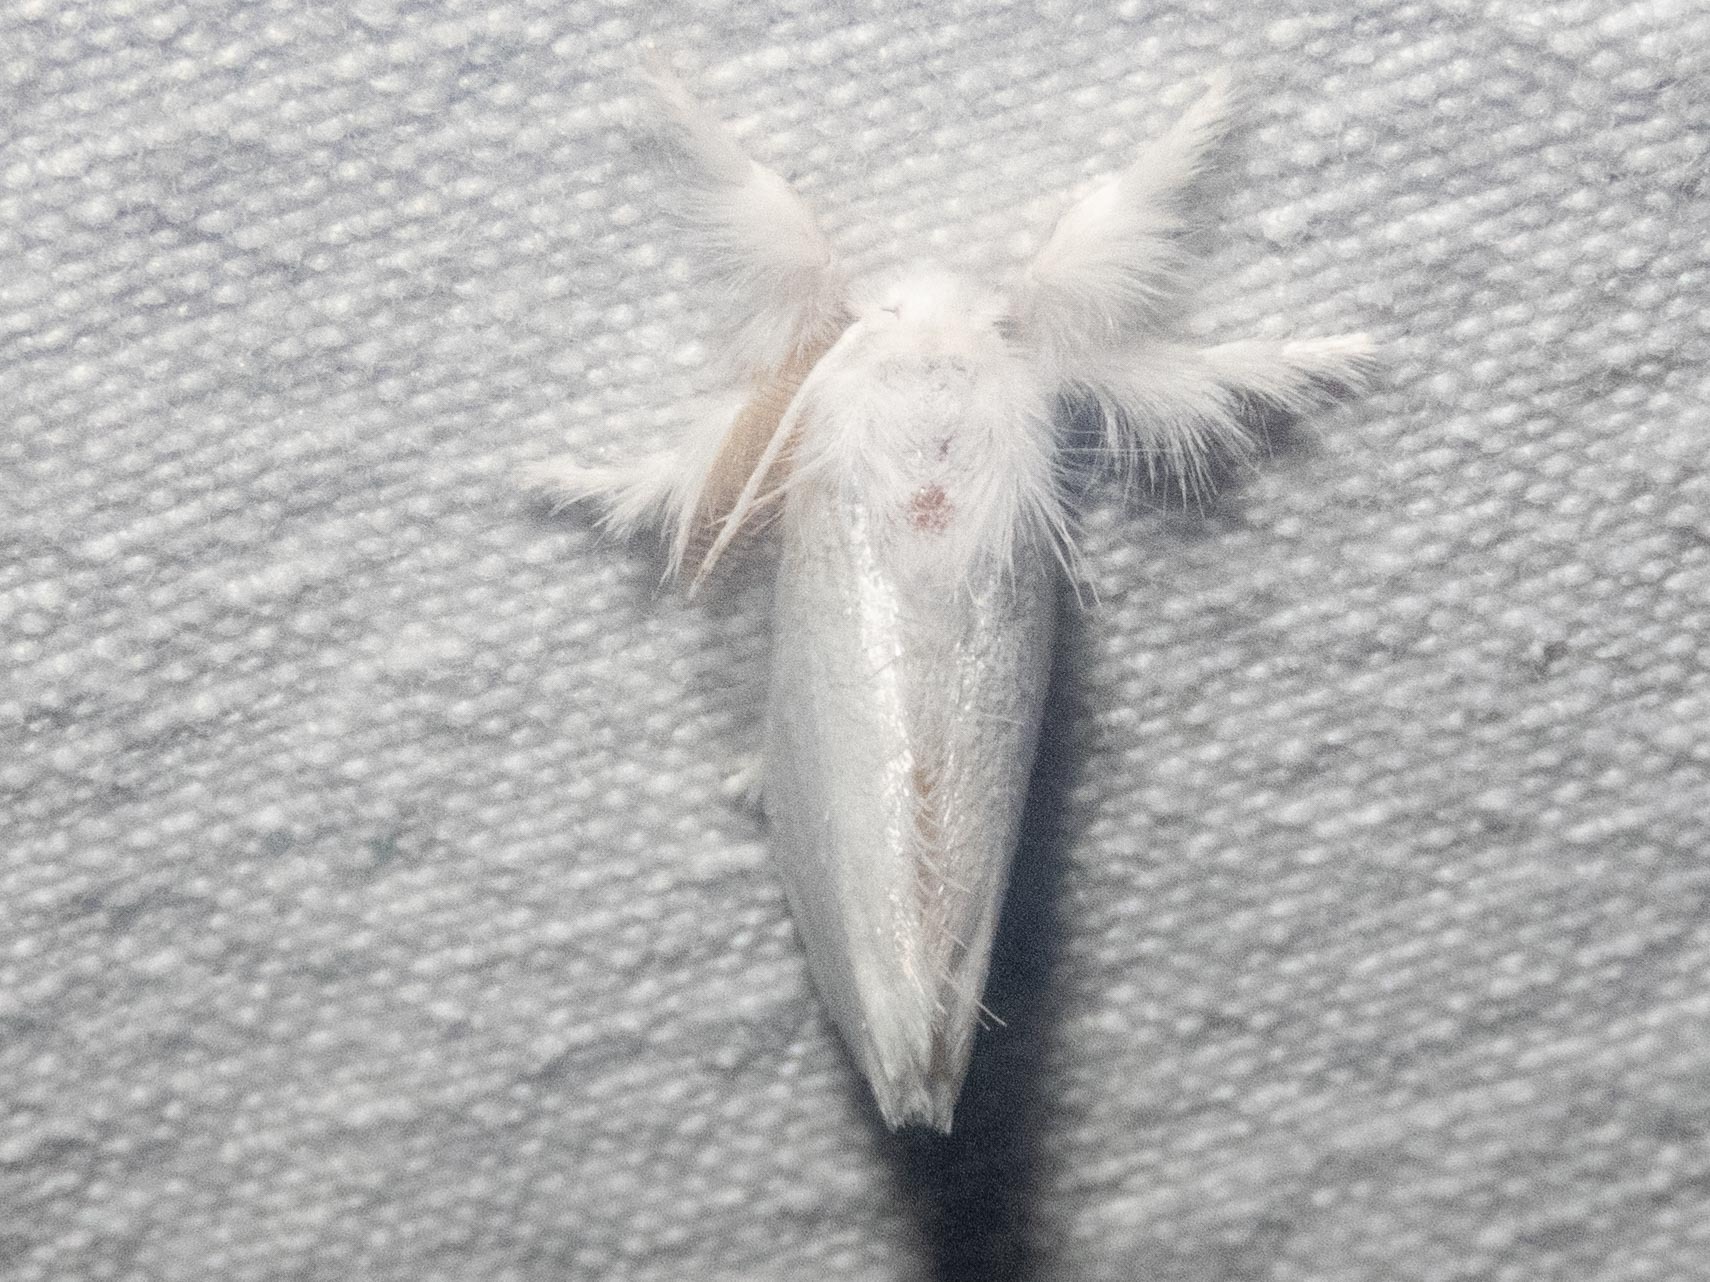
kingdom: Animalia
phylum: Arthropoda
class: Insecta
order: Lepidoptera
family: Erebidae
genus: Sphrageidus
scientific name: Sphrageidus similis
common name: Yellow-tail
